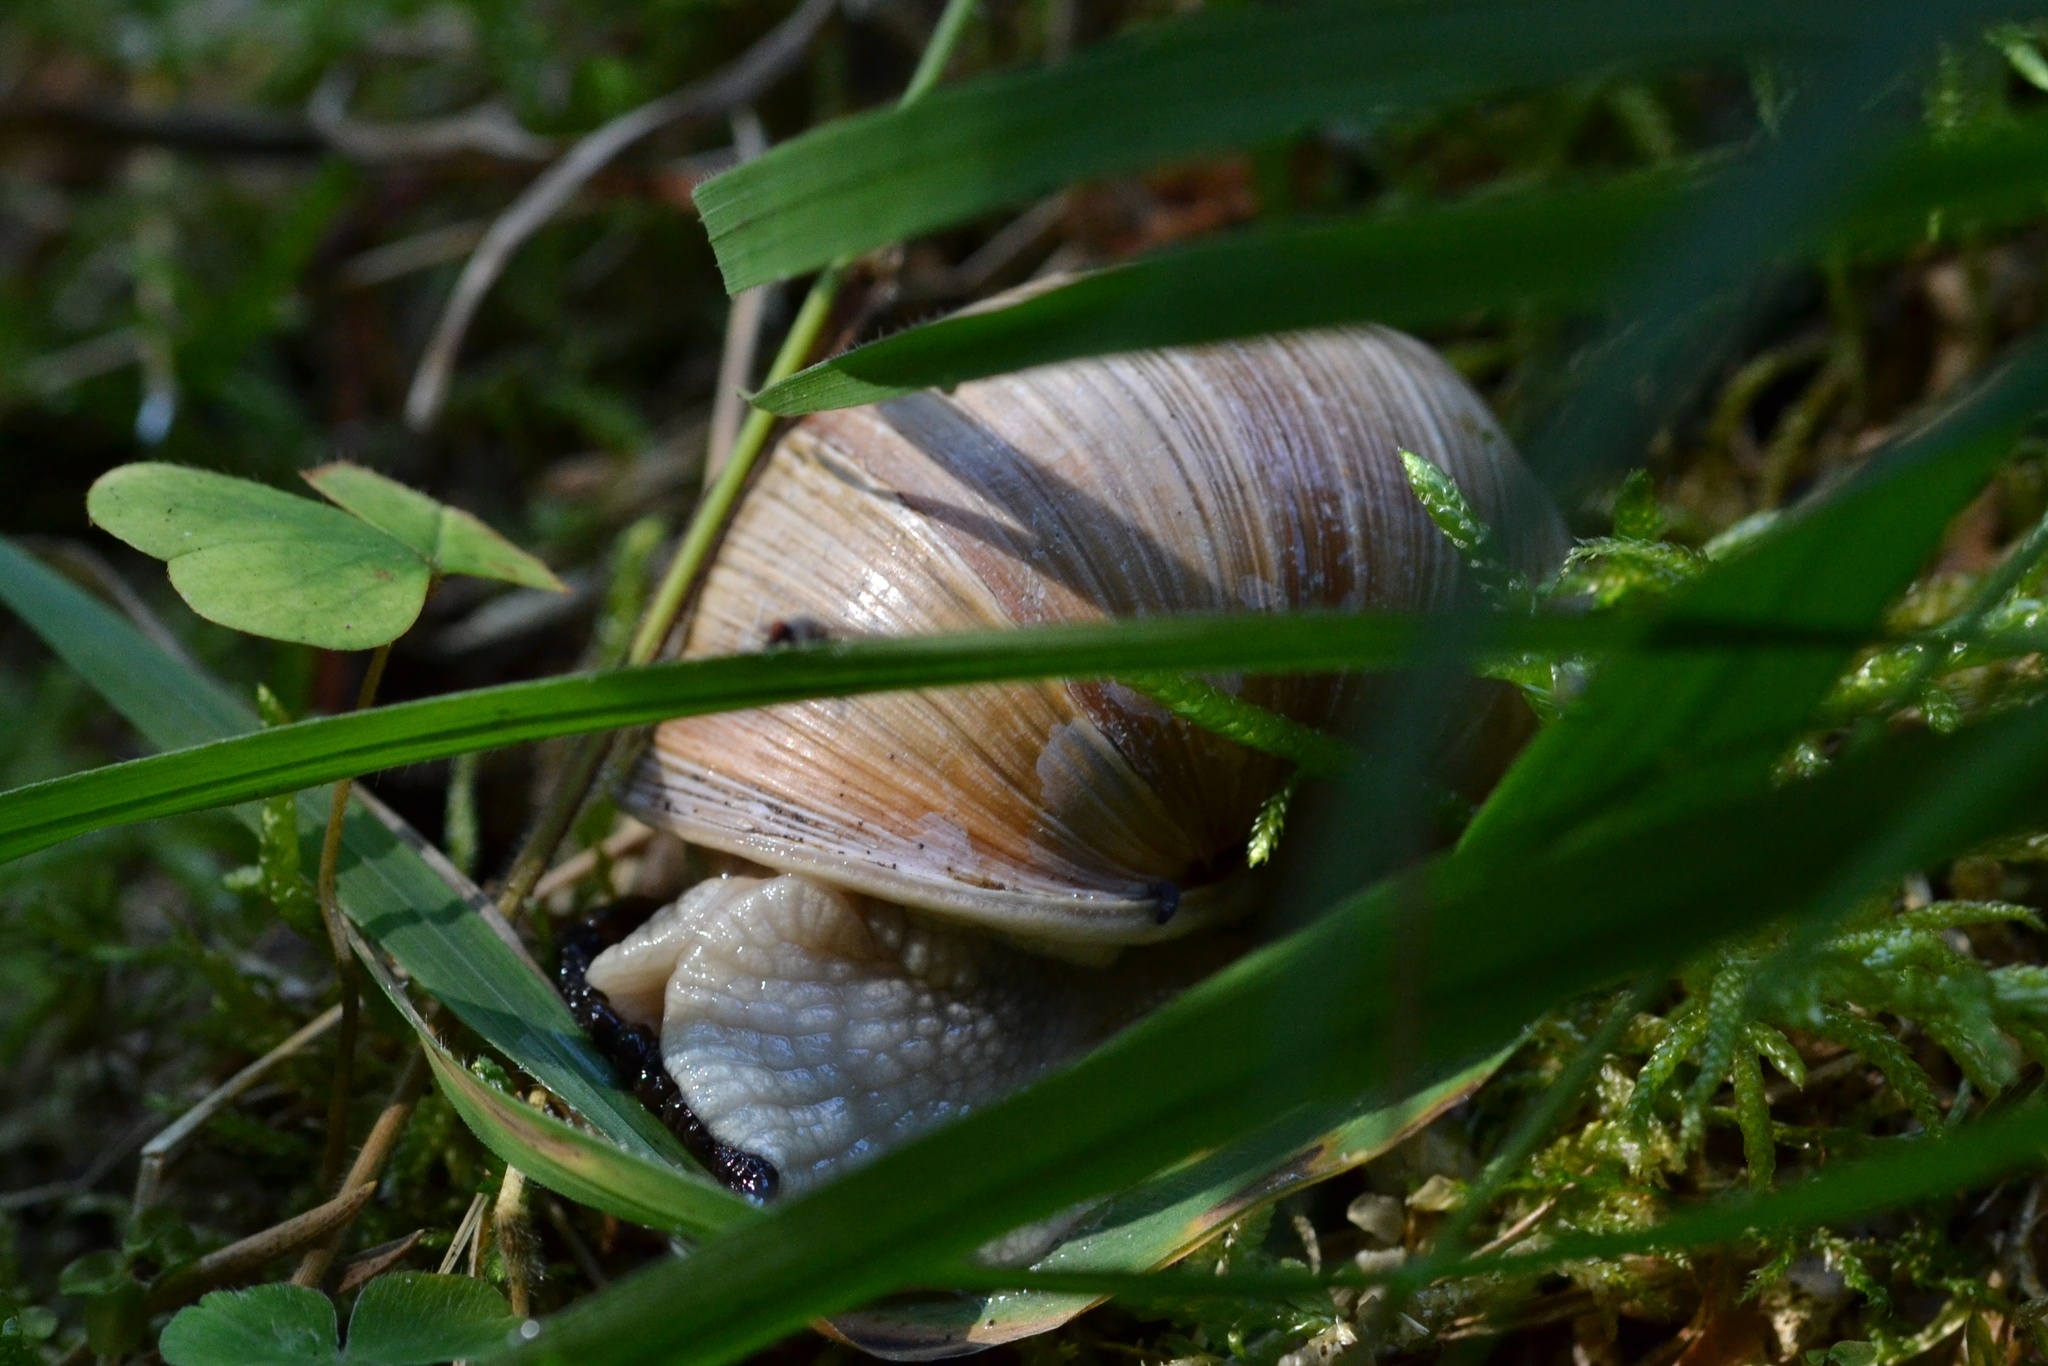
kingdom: Animalia
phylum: Mollusca
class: Gastropoda
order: Stylommatophora
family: Helicidae
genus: Helix
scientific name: Helix pomatia
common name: Roman snail
